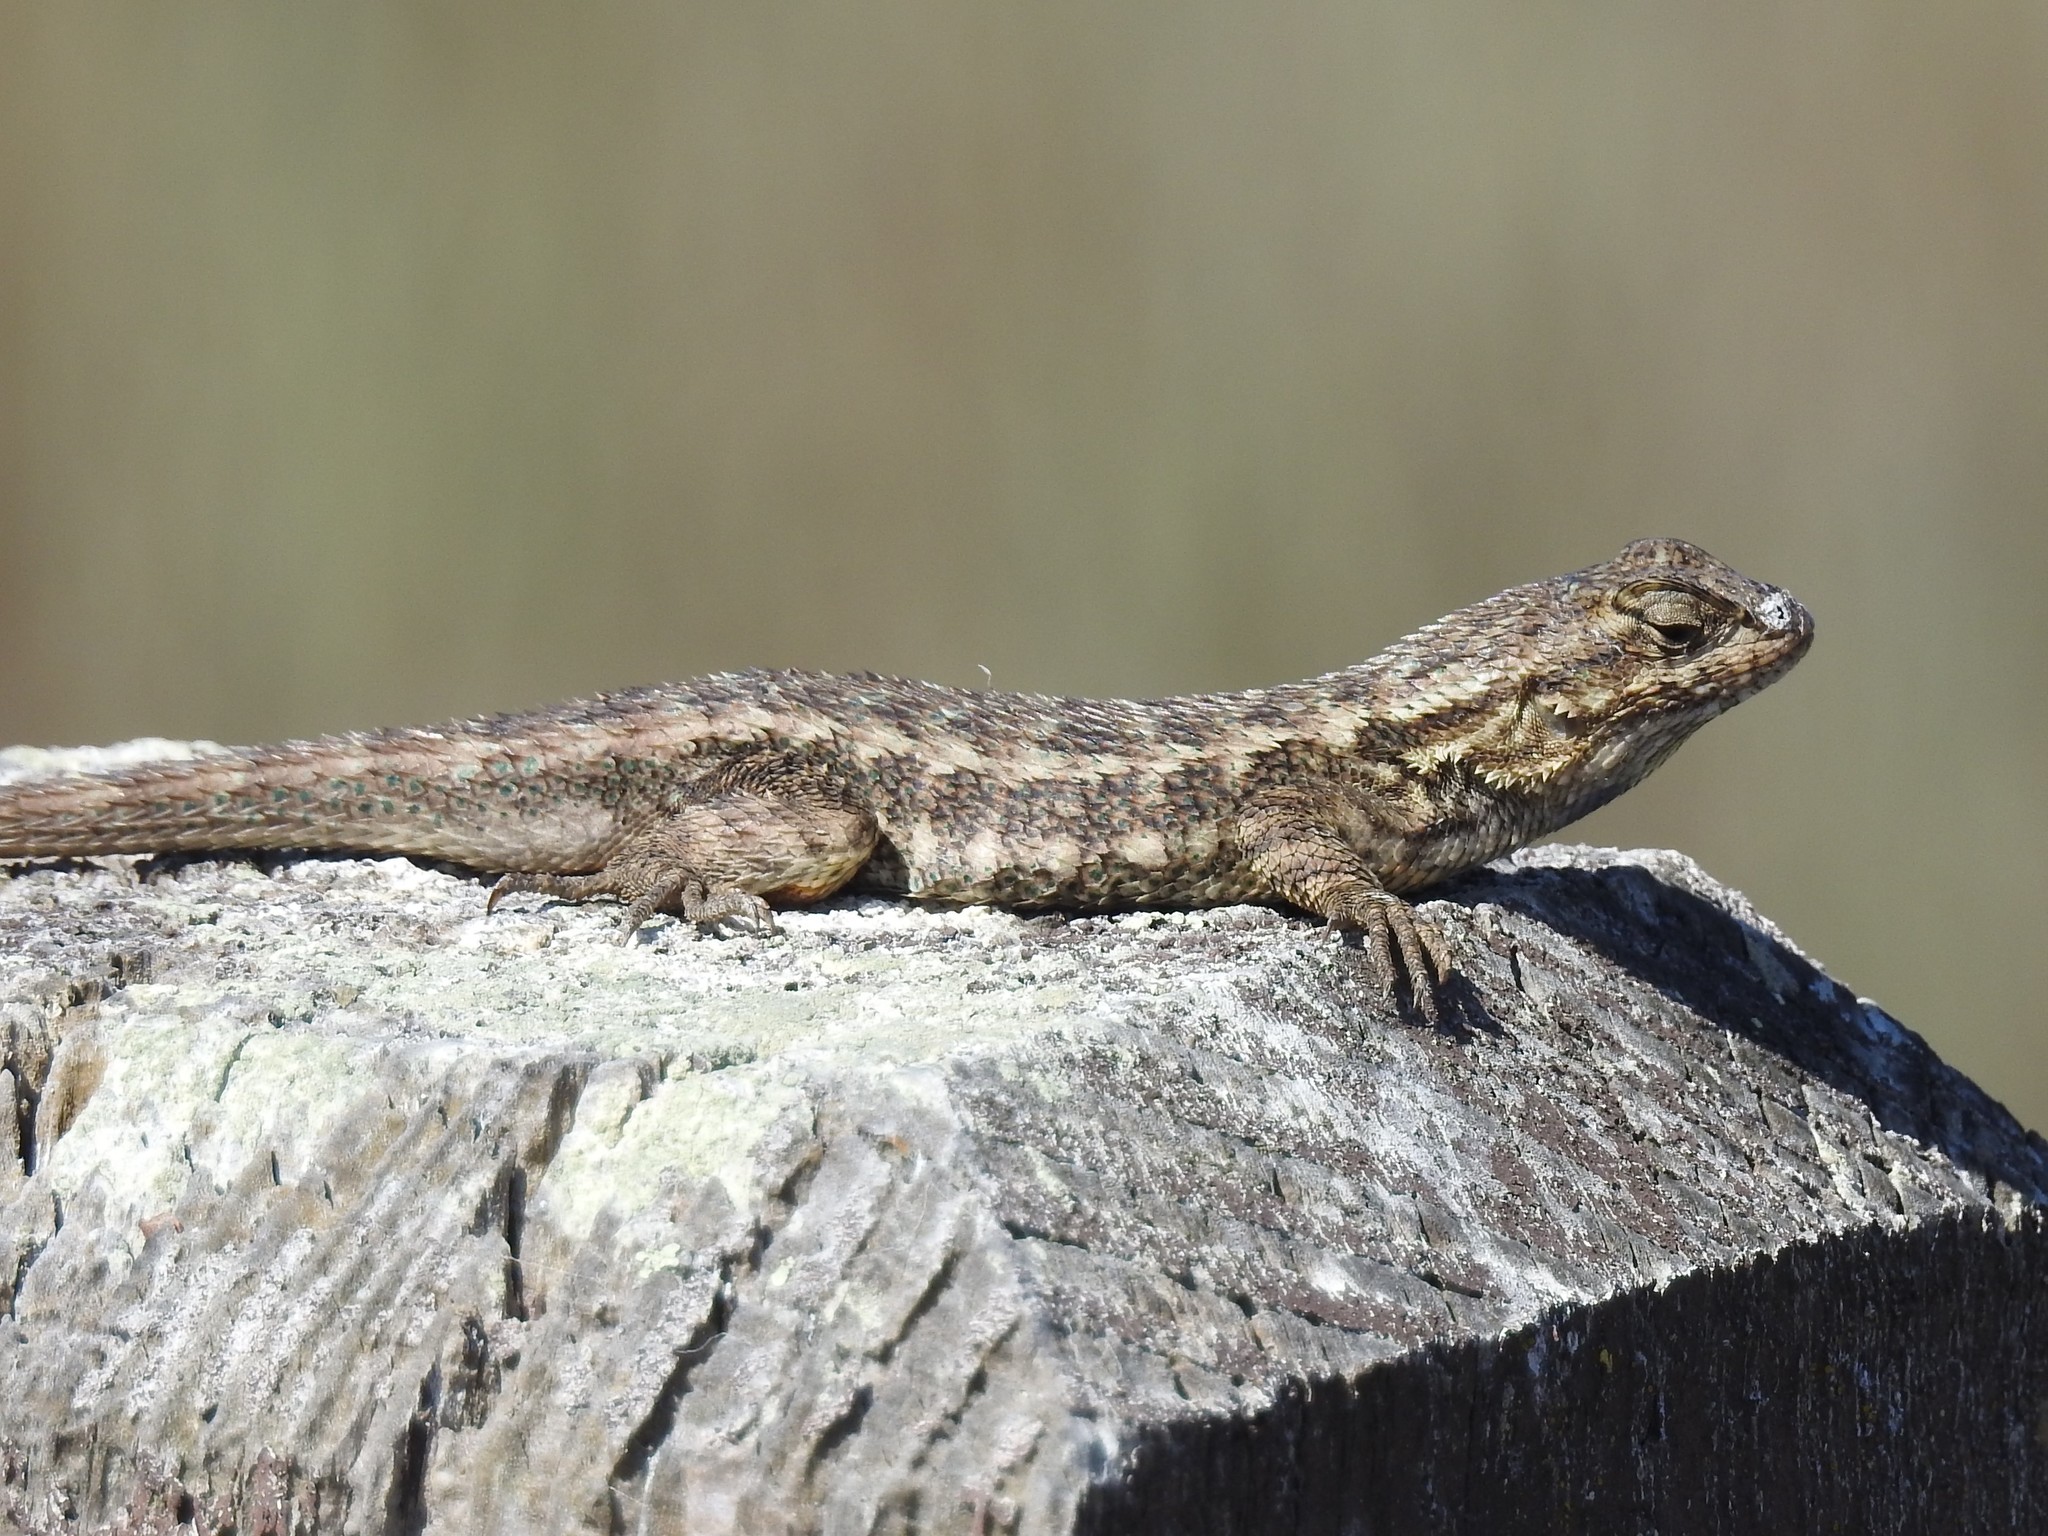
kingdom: Animalia
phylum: Chordata
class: Squamata
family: Phrynosomatidae
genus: Sceloporus
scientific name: Sceloporus occidentalis
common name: Western fence lizard
